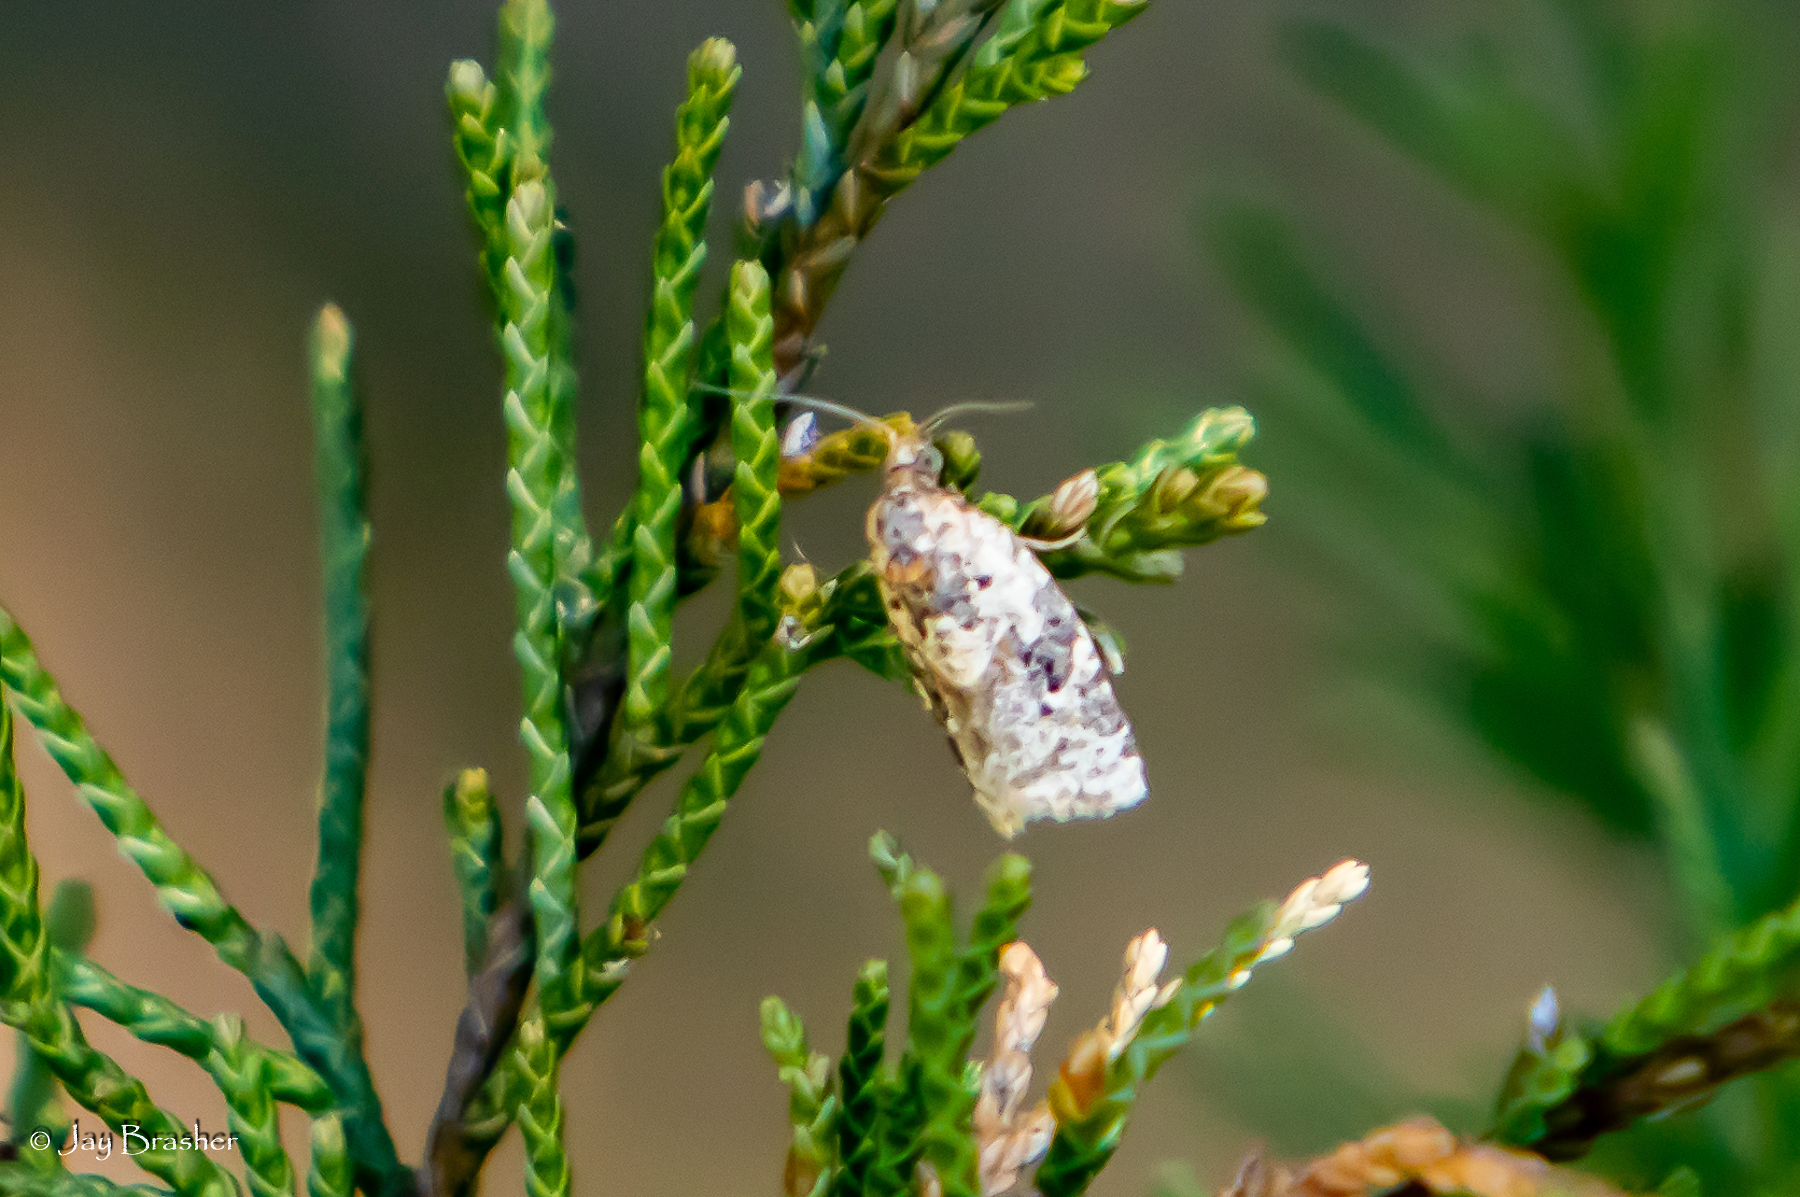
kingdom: Animalia
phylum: Arthropoda
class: Insecta
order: Lepidoptera
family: Tortricidae
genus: Argyrotaenia
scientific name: Argyrotaenia velutinana
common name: Red-banded leafroller moth
